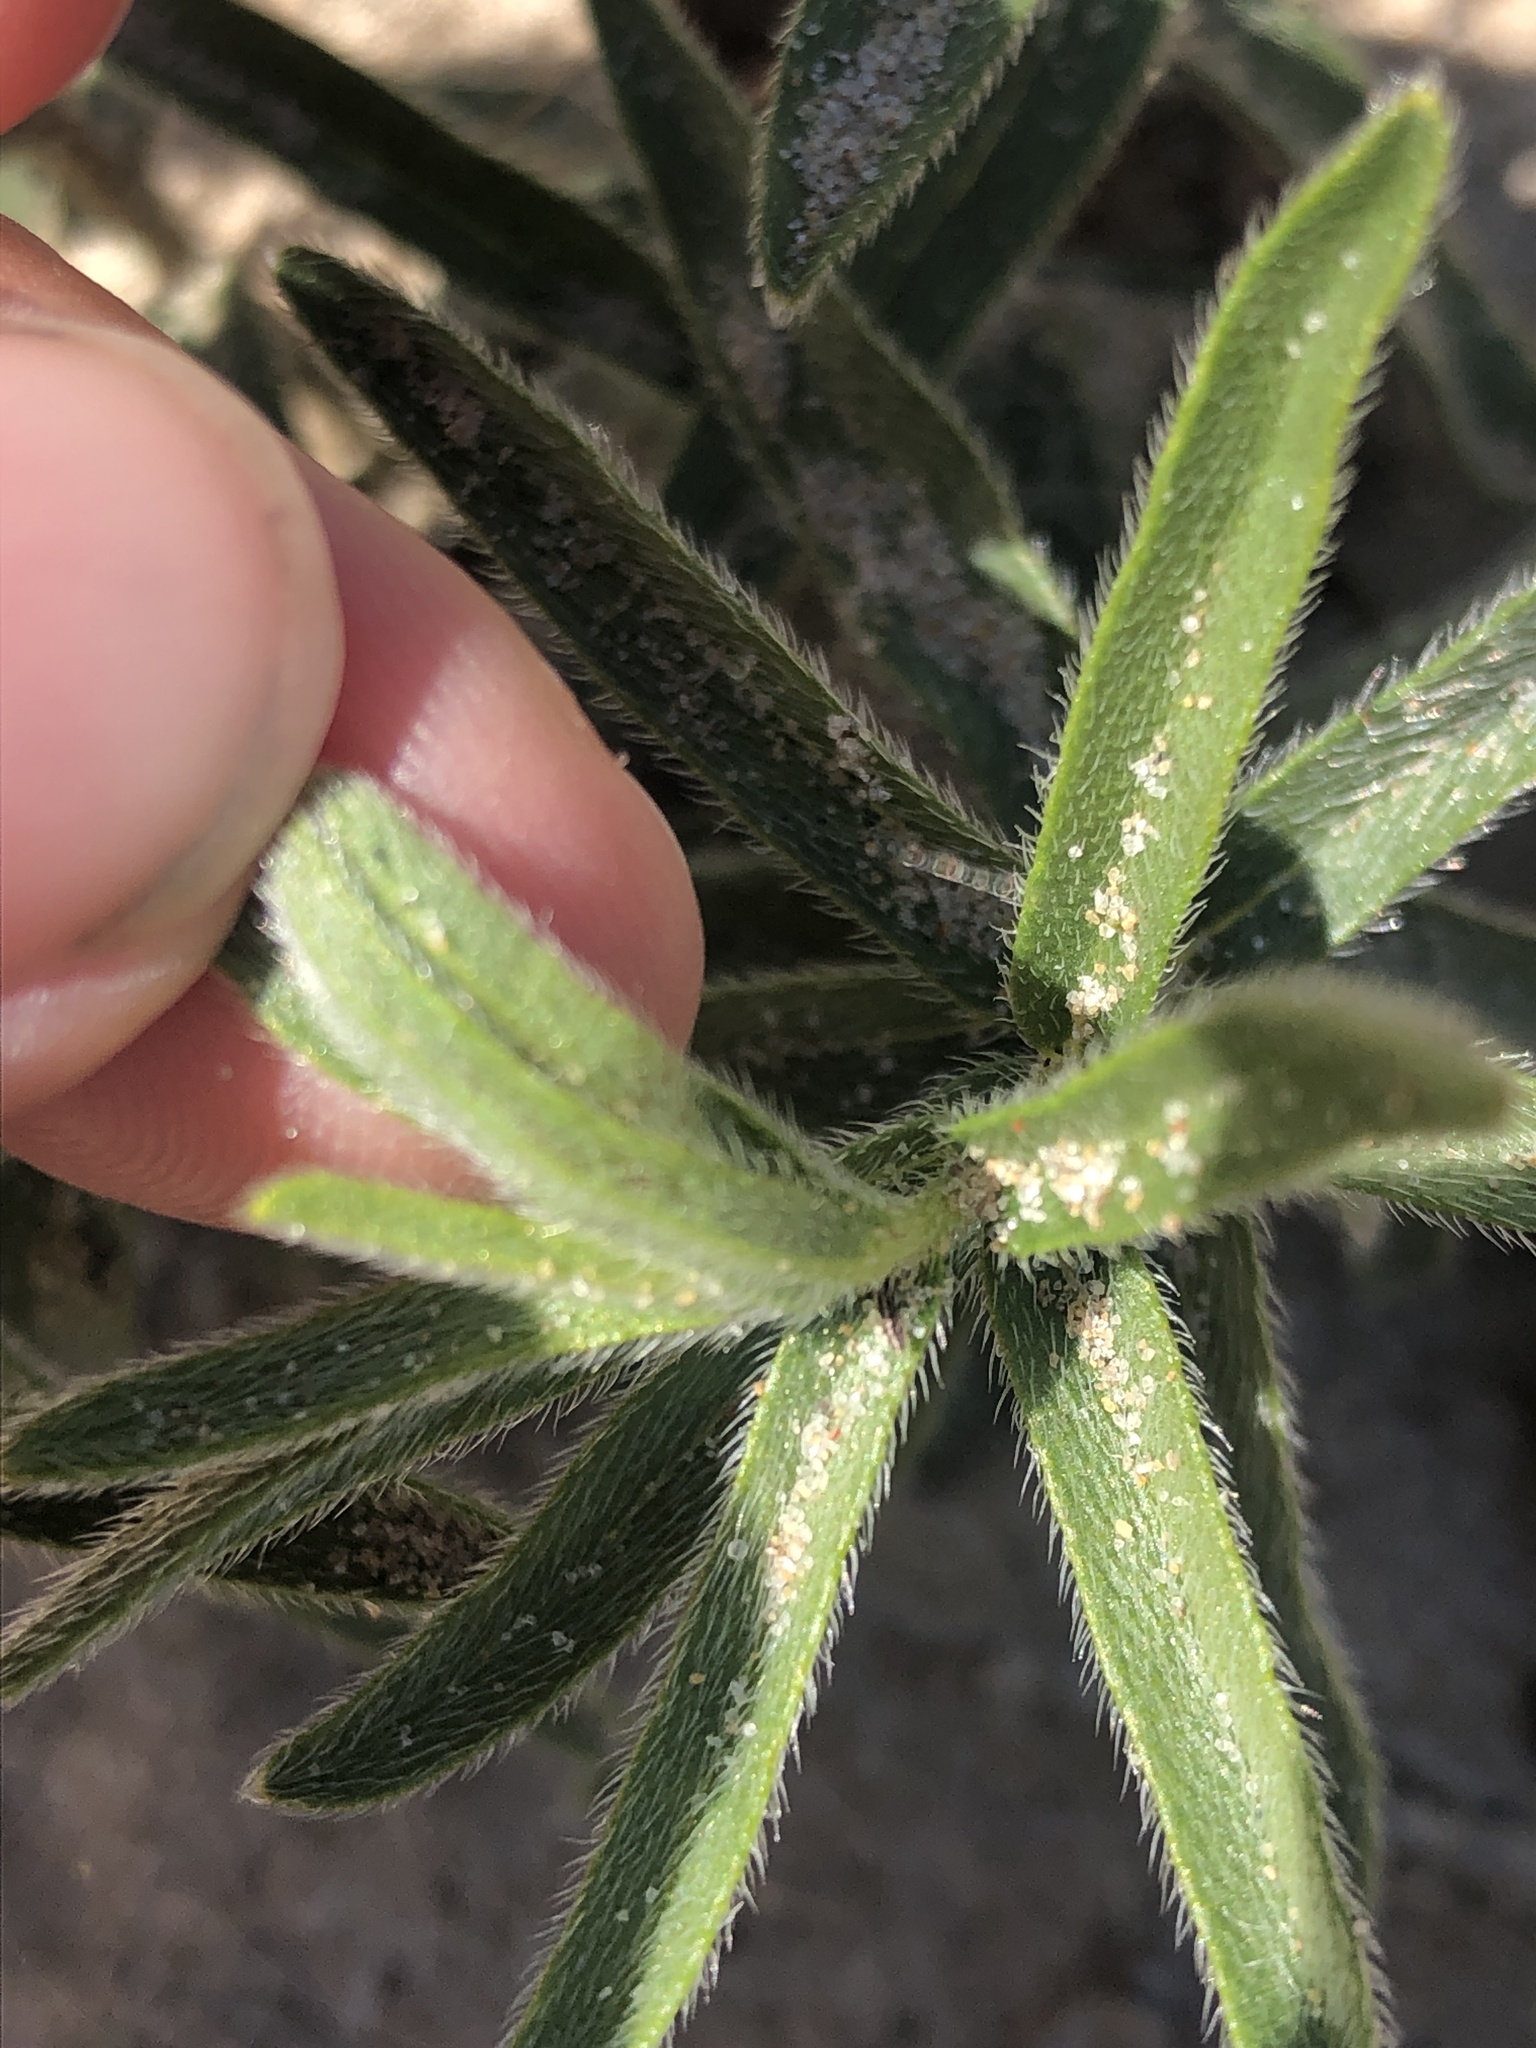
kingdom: Plantae
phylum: Tracheophyta
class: Magnoliopsida
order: Boraginales
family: Boraginaceae
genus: Lithospermum
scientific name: Lithospermum caroliniense
